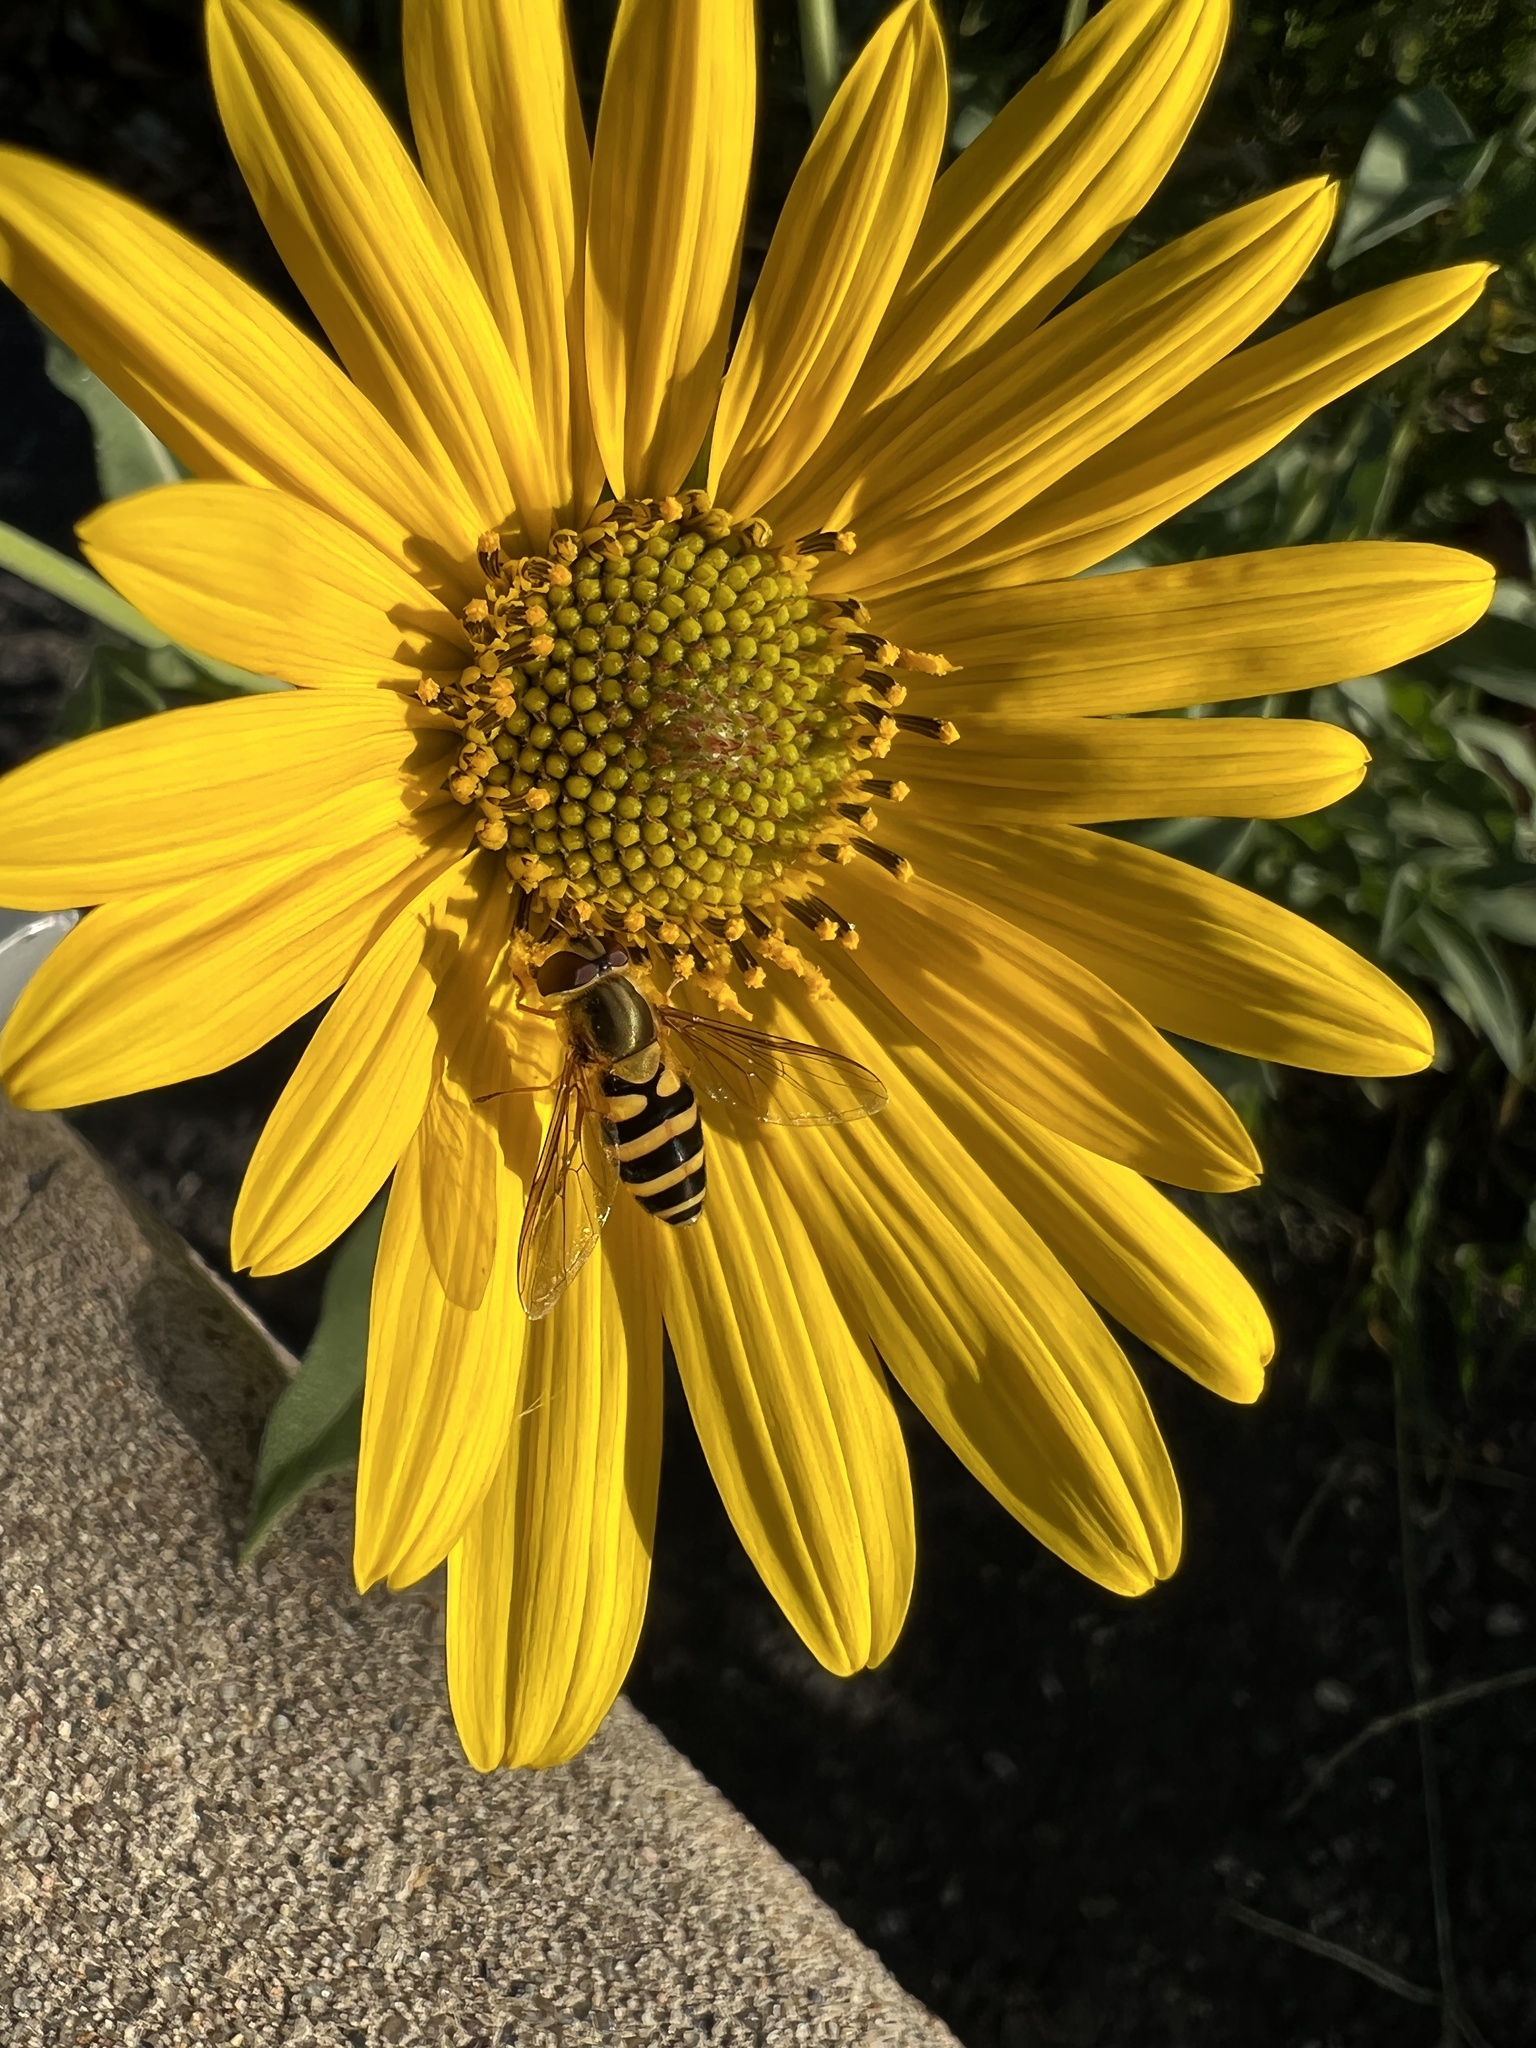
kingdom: Animalia
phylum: Arthropoda
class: Insecta
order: Diptera
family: Syrphidae
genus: Syrphus
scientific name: Syrphus ribesii
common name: Common flower fly
